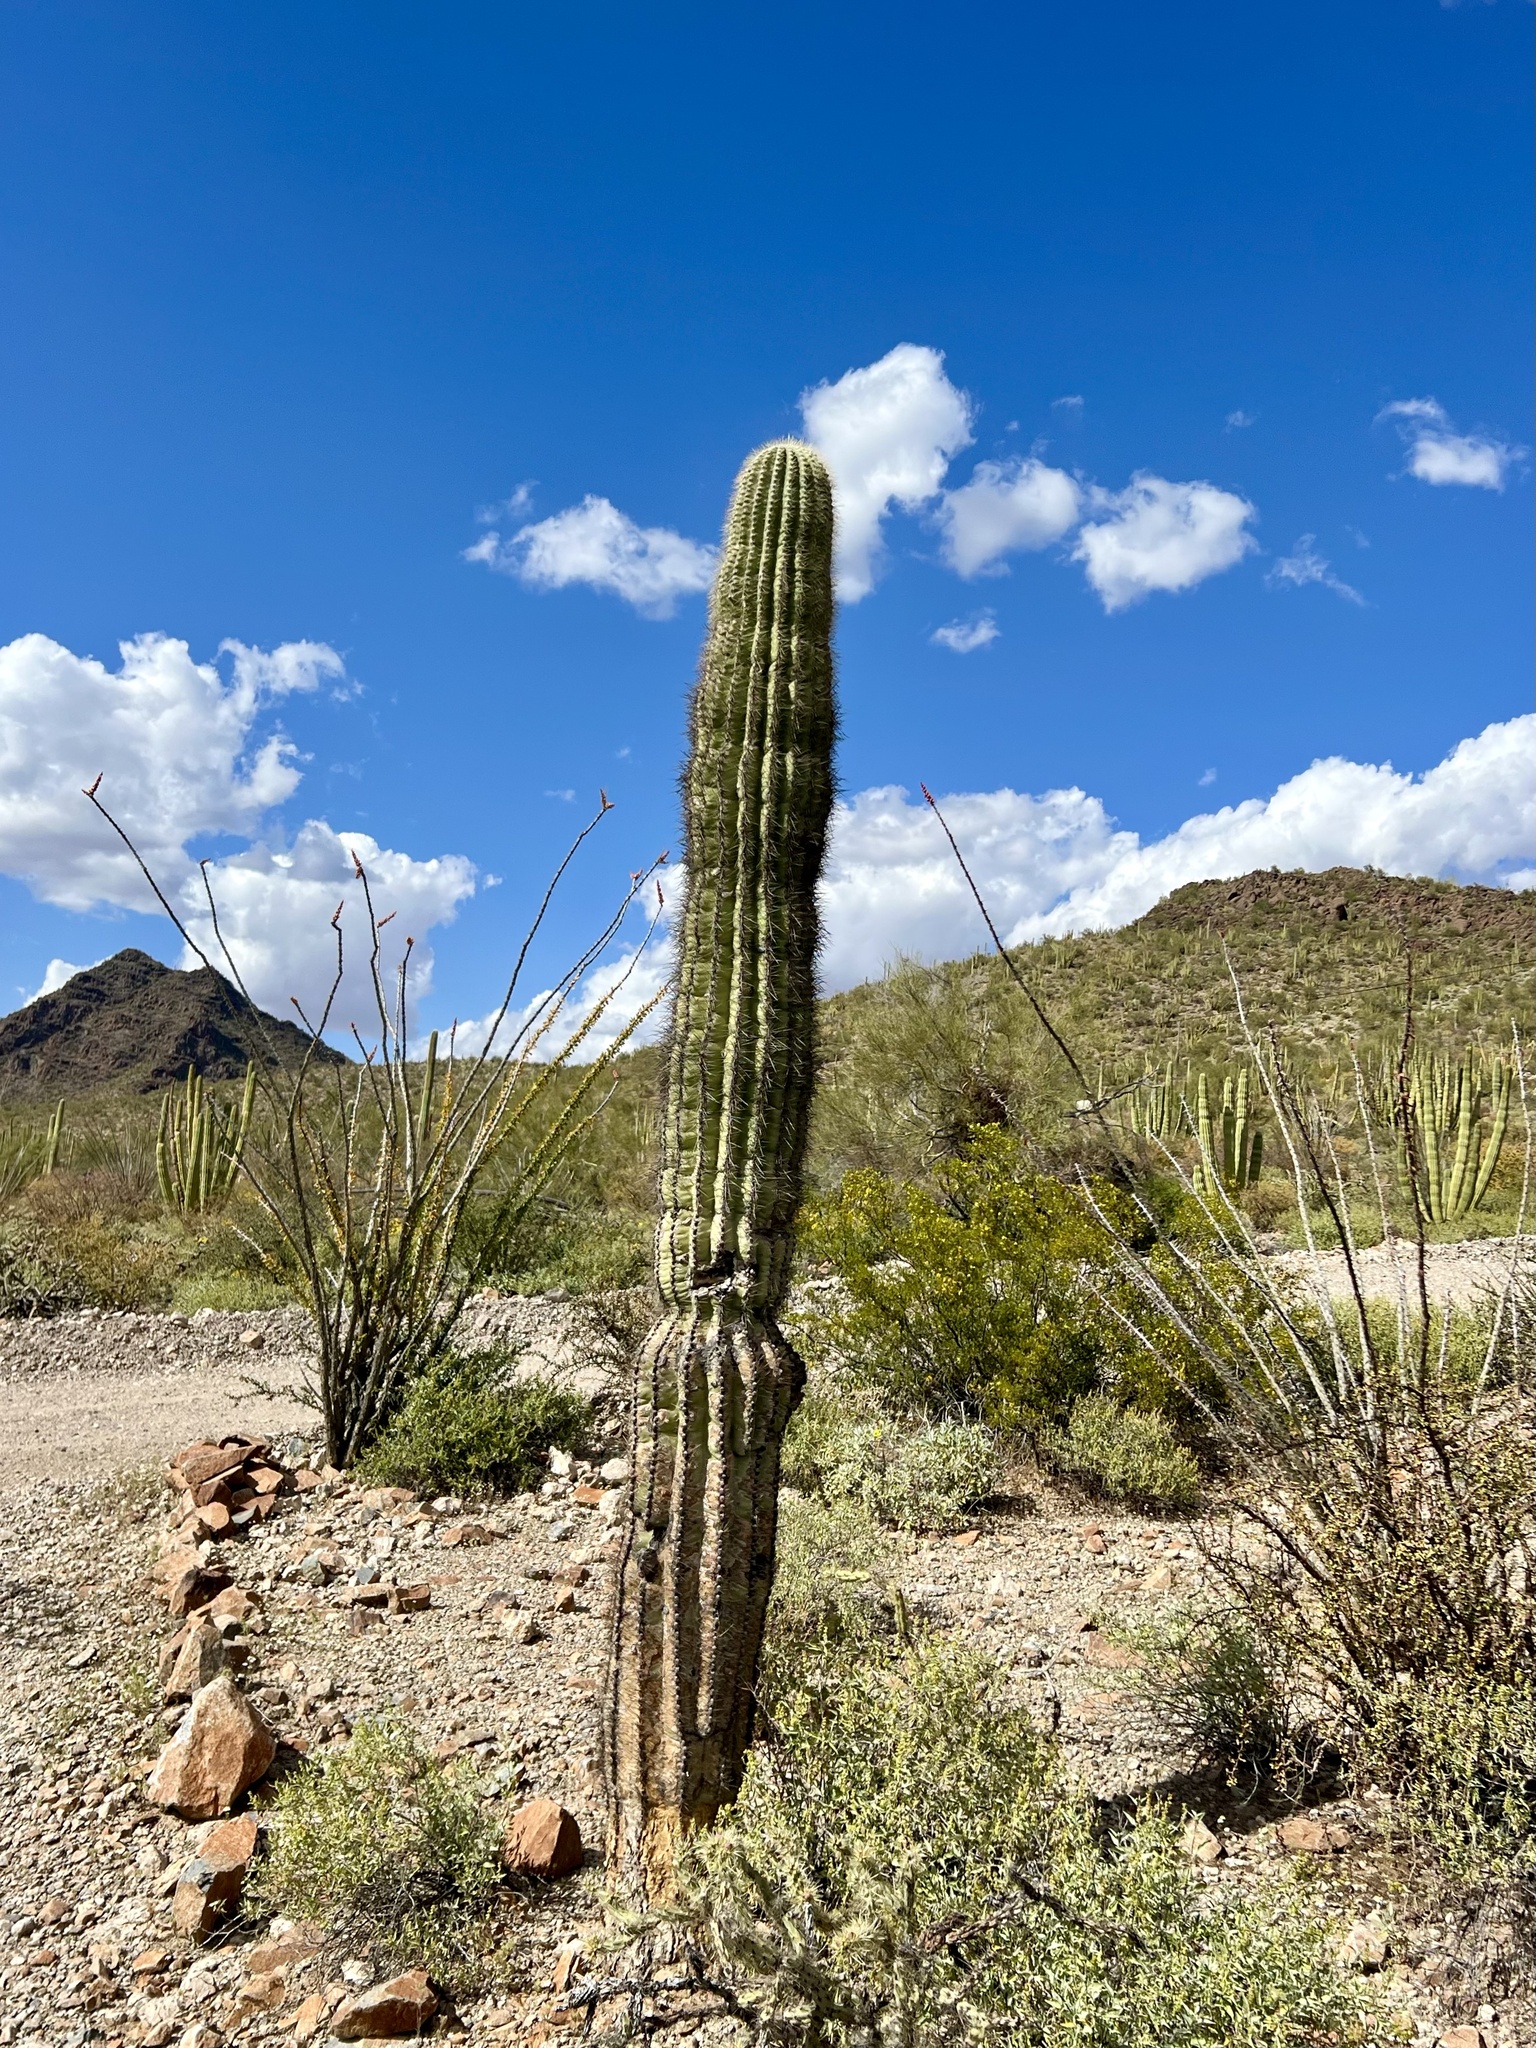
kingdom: Plantae
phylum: Tracheophyta
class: Magnoliopsida
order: Caryophyllales
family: Cactaceae
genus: Carnegiea
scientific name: Carnegiea gigantea
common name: Saguaro
